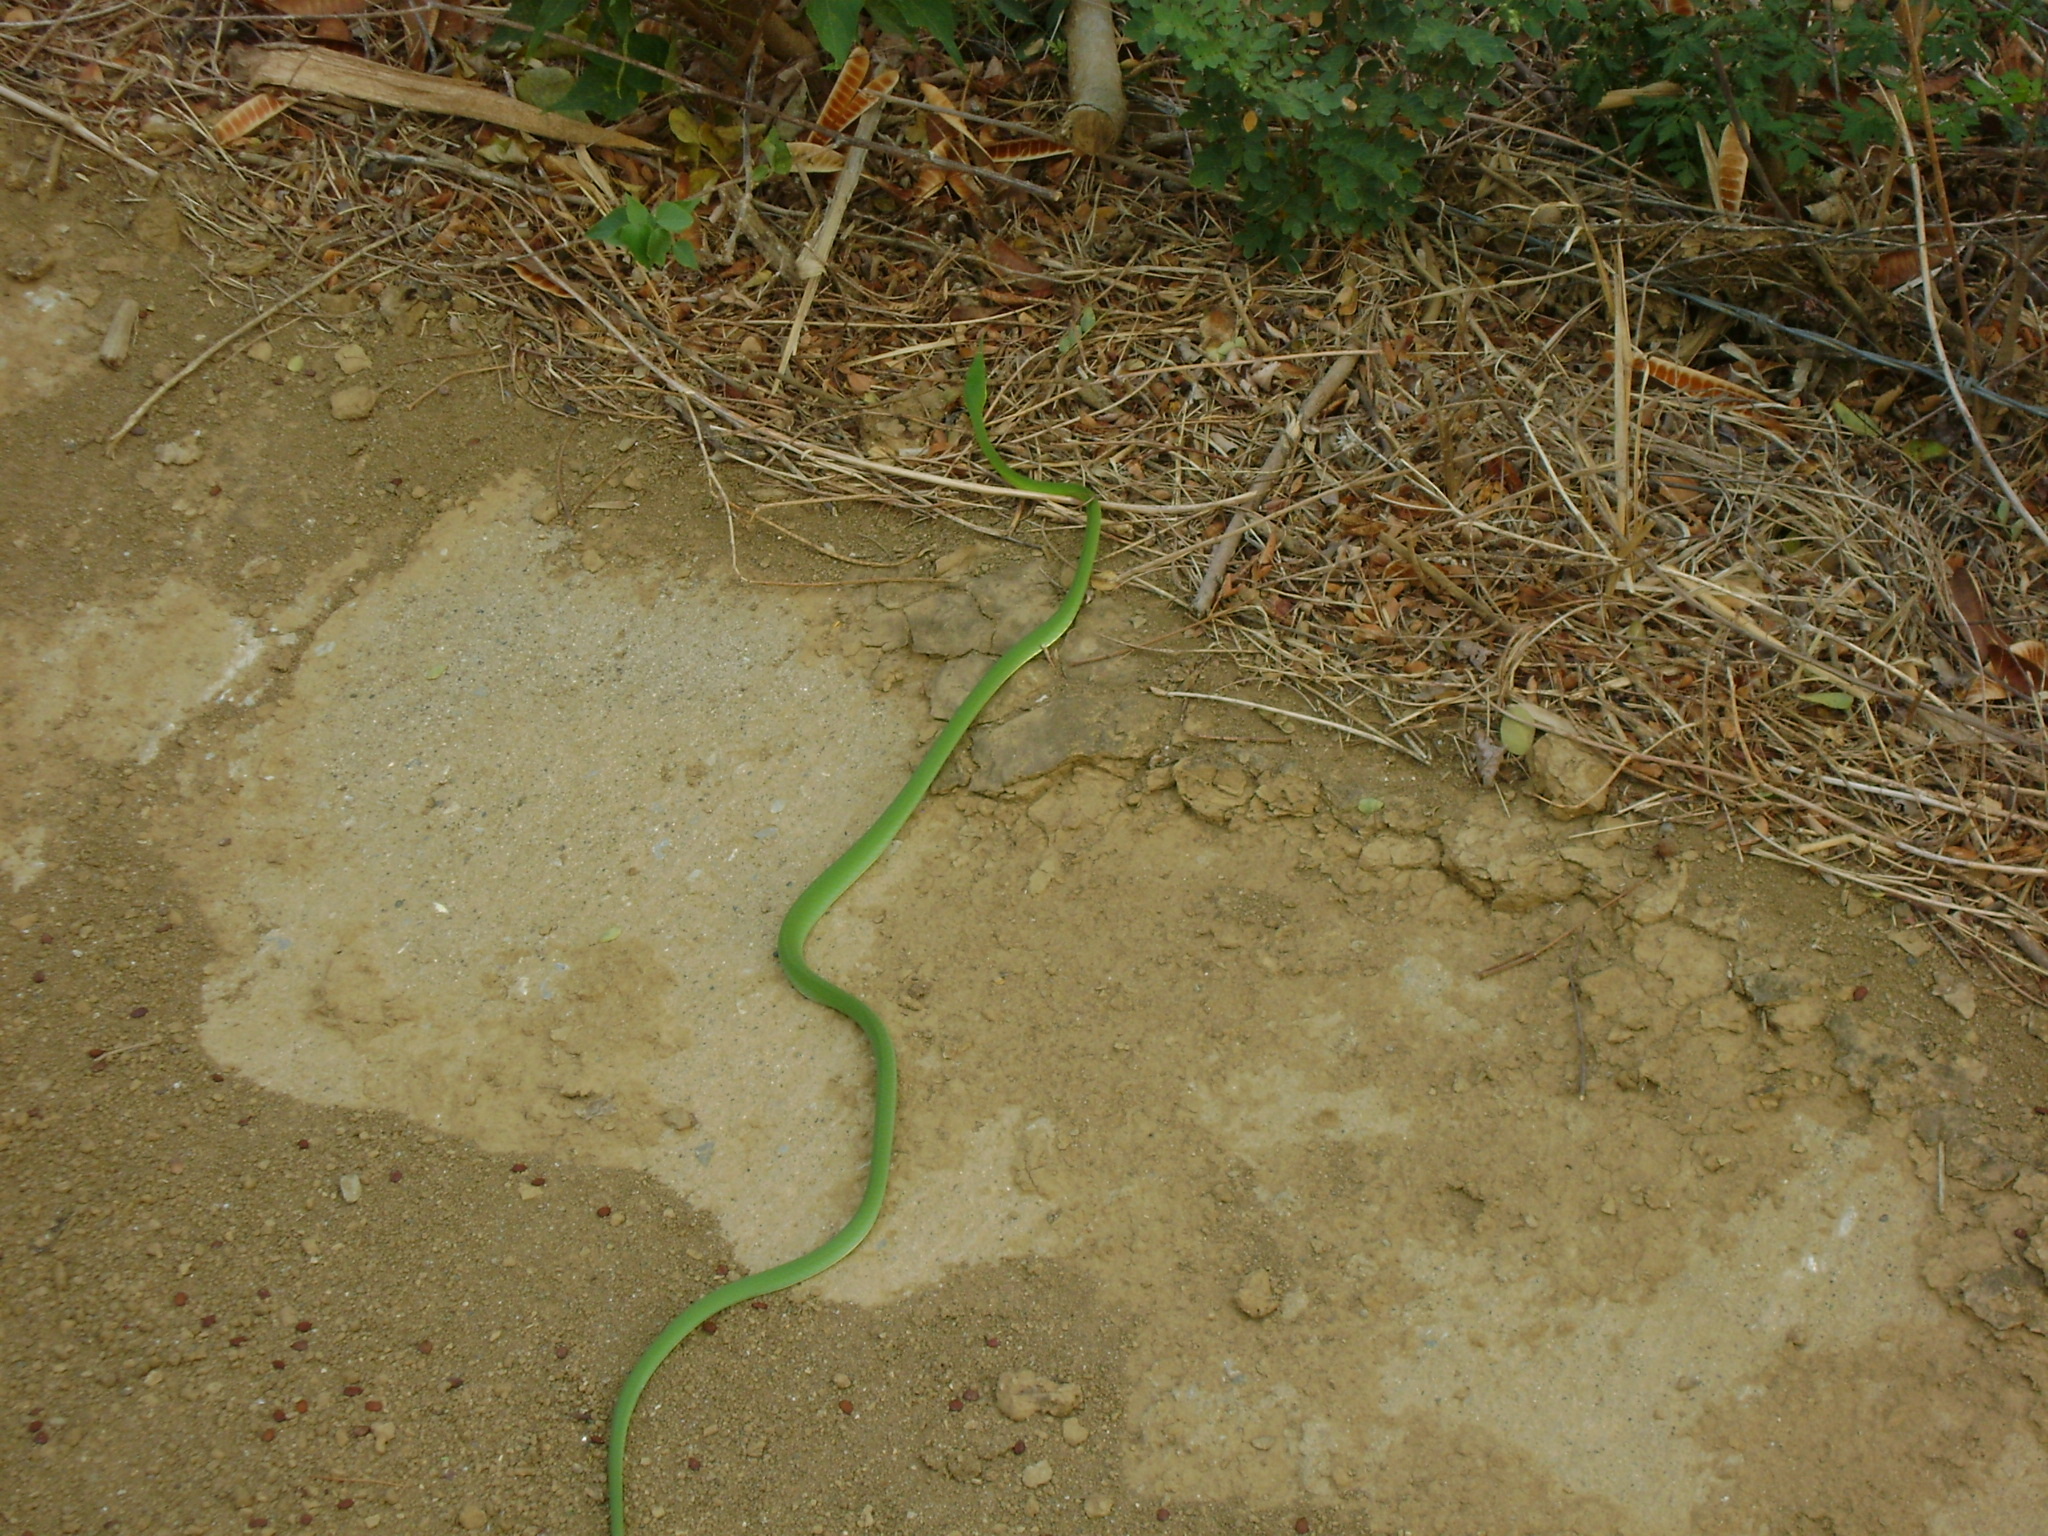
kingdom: Animalia
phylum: Chordata
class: Squamata
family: Colubridae
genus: Oxybelis
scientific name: Oxybelis fulgidus
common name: Green vine snake
